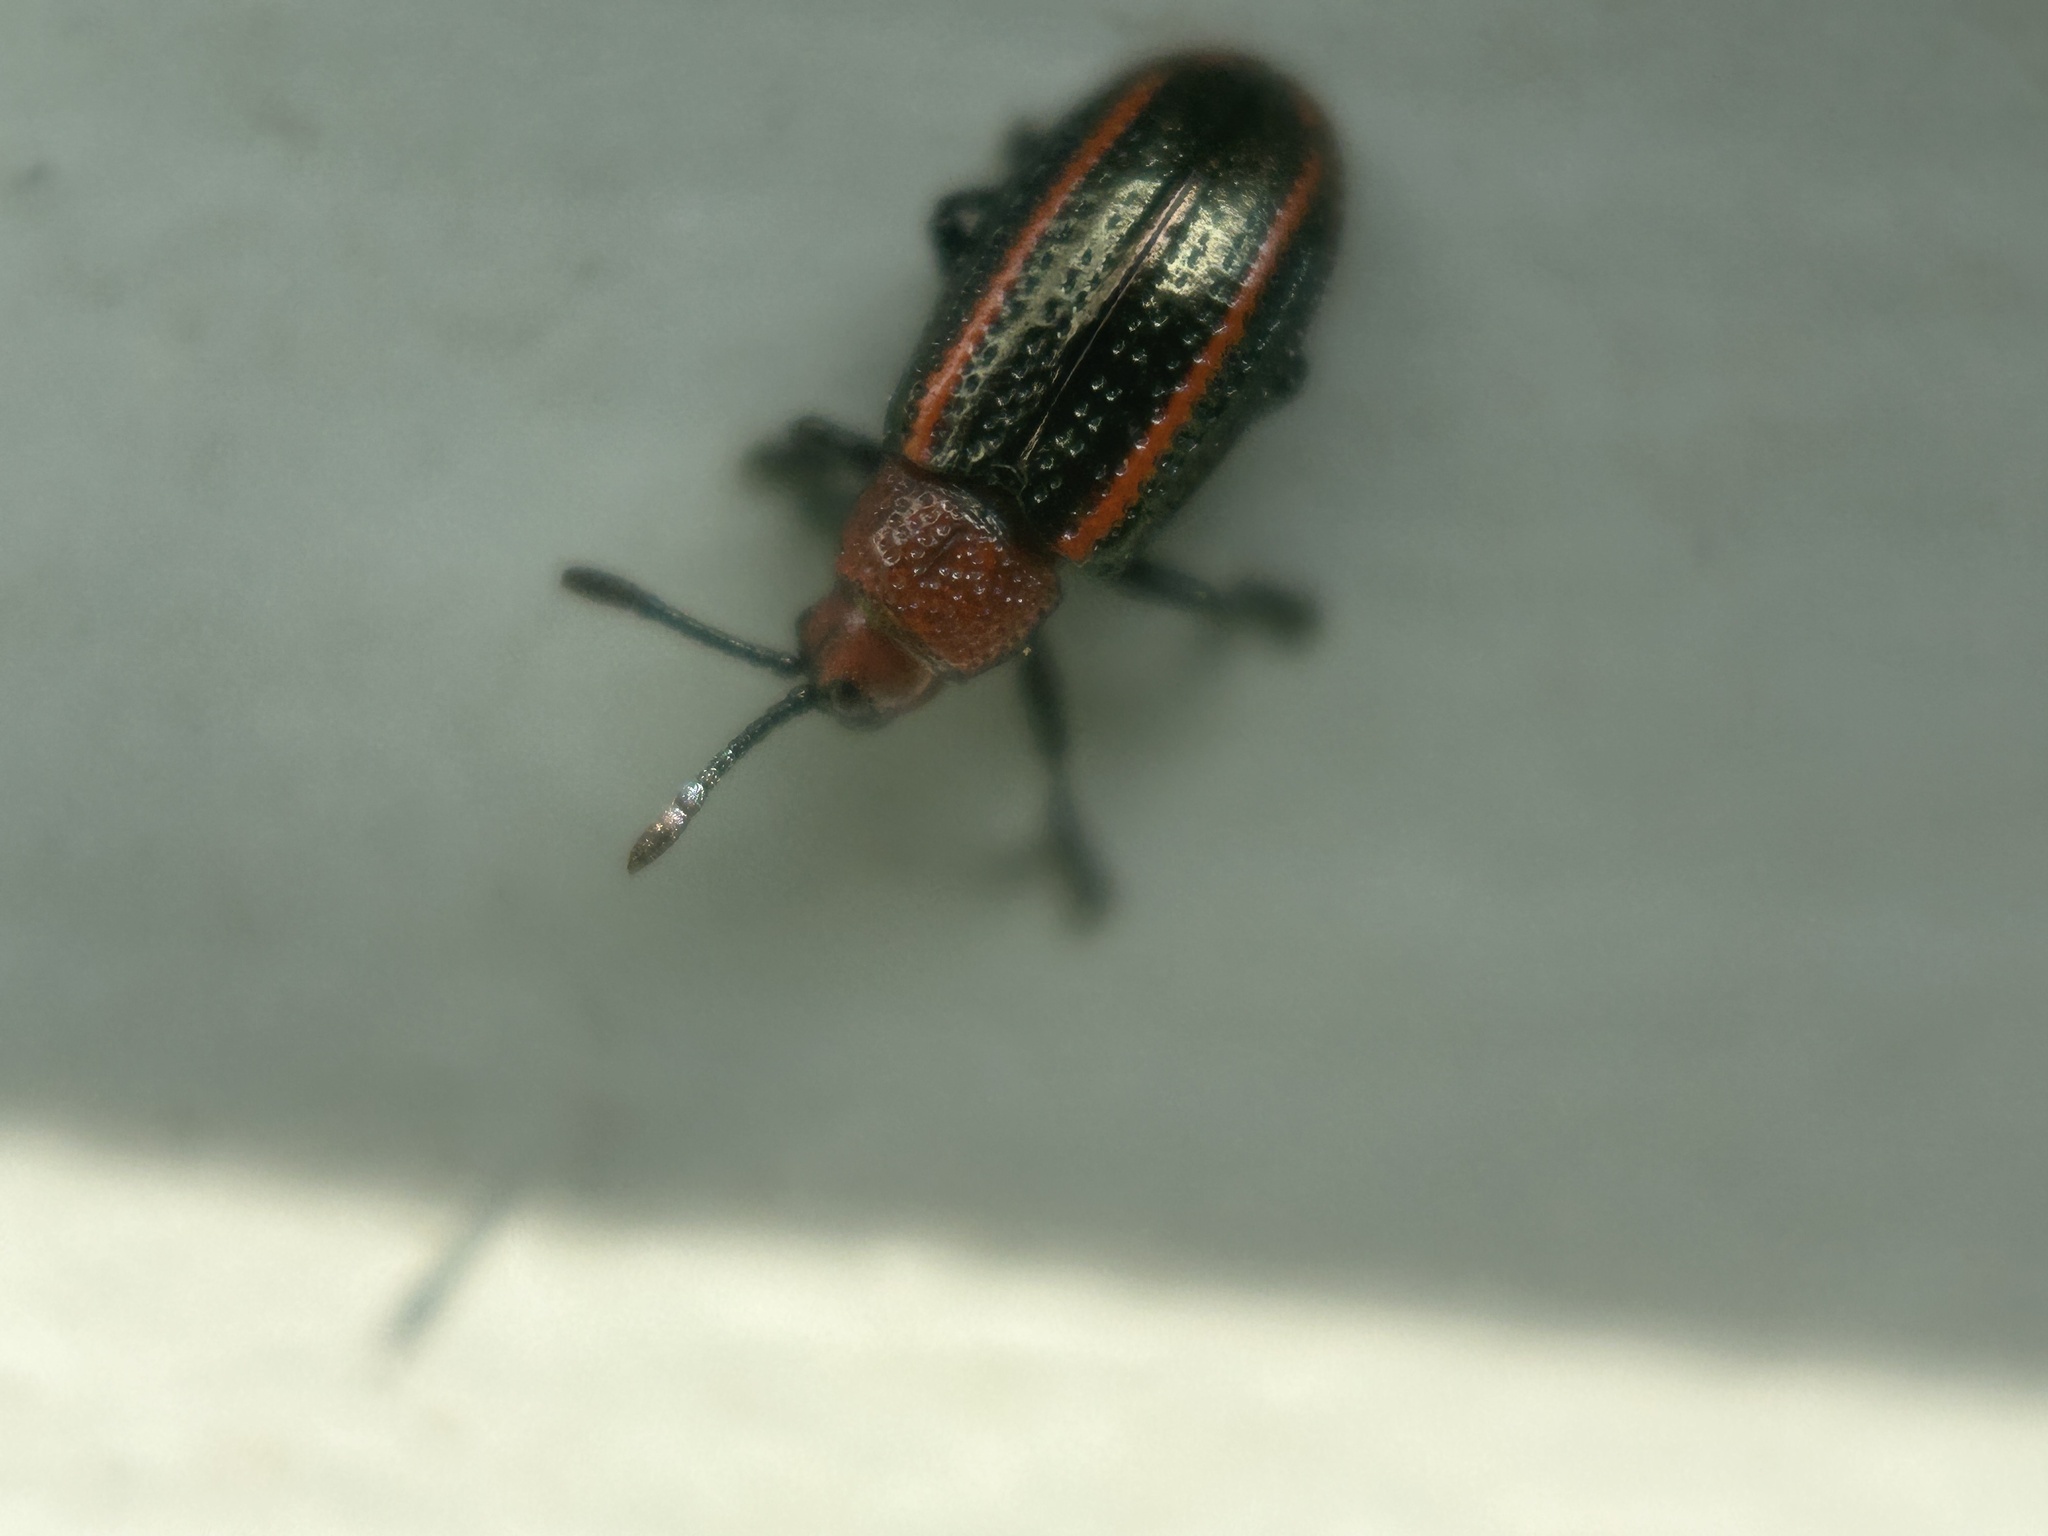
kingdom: Animalia
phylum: Arthropoda
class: Insecta
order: Coleoptera
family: Chrysomelidae
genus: Microrhopala
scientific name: Microrhopala vittata
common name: Goldenrod leaf miner beetle
